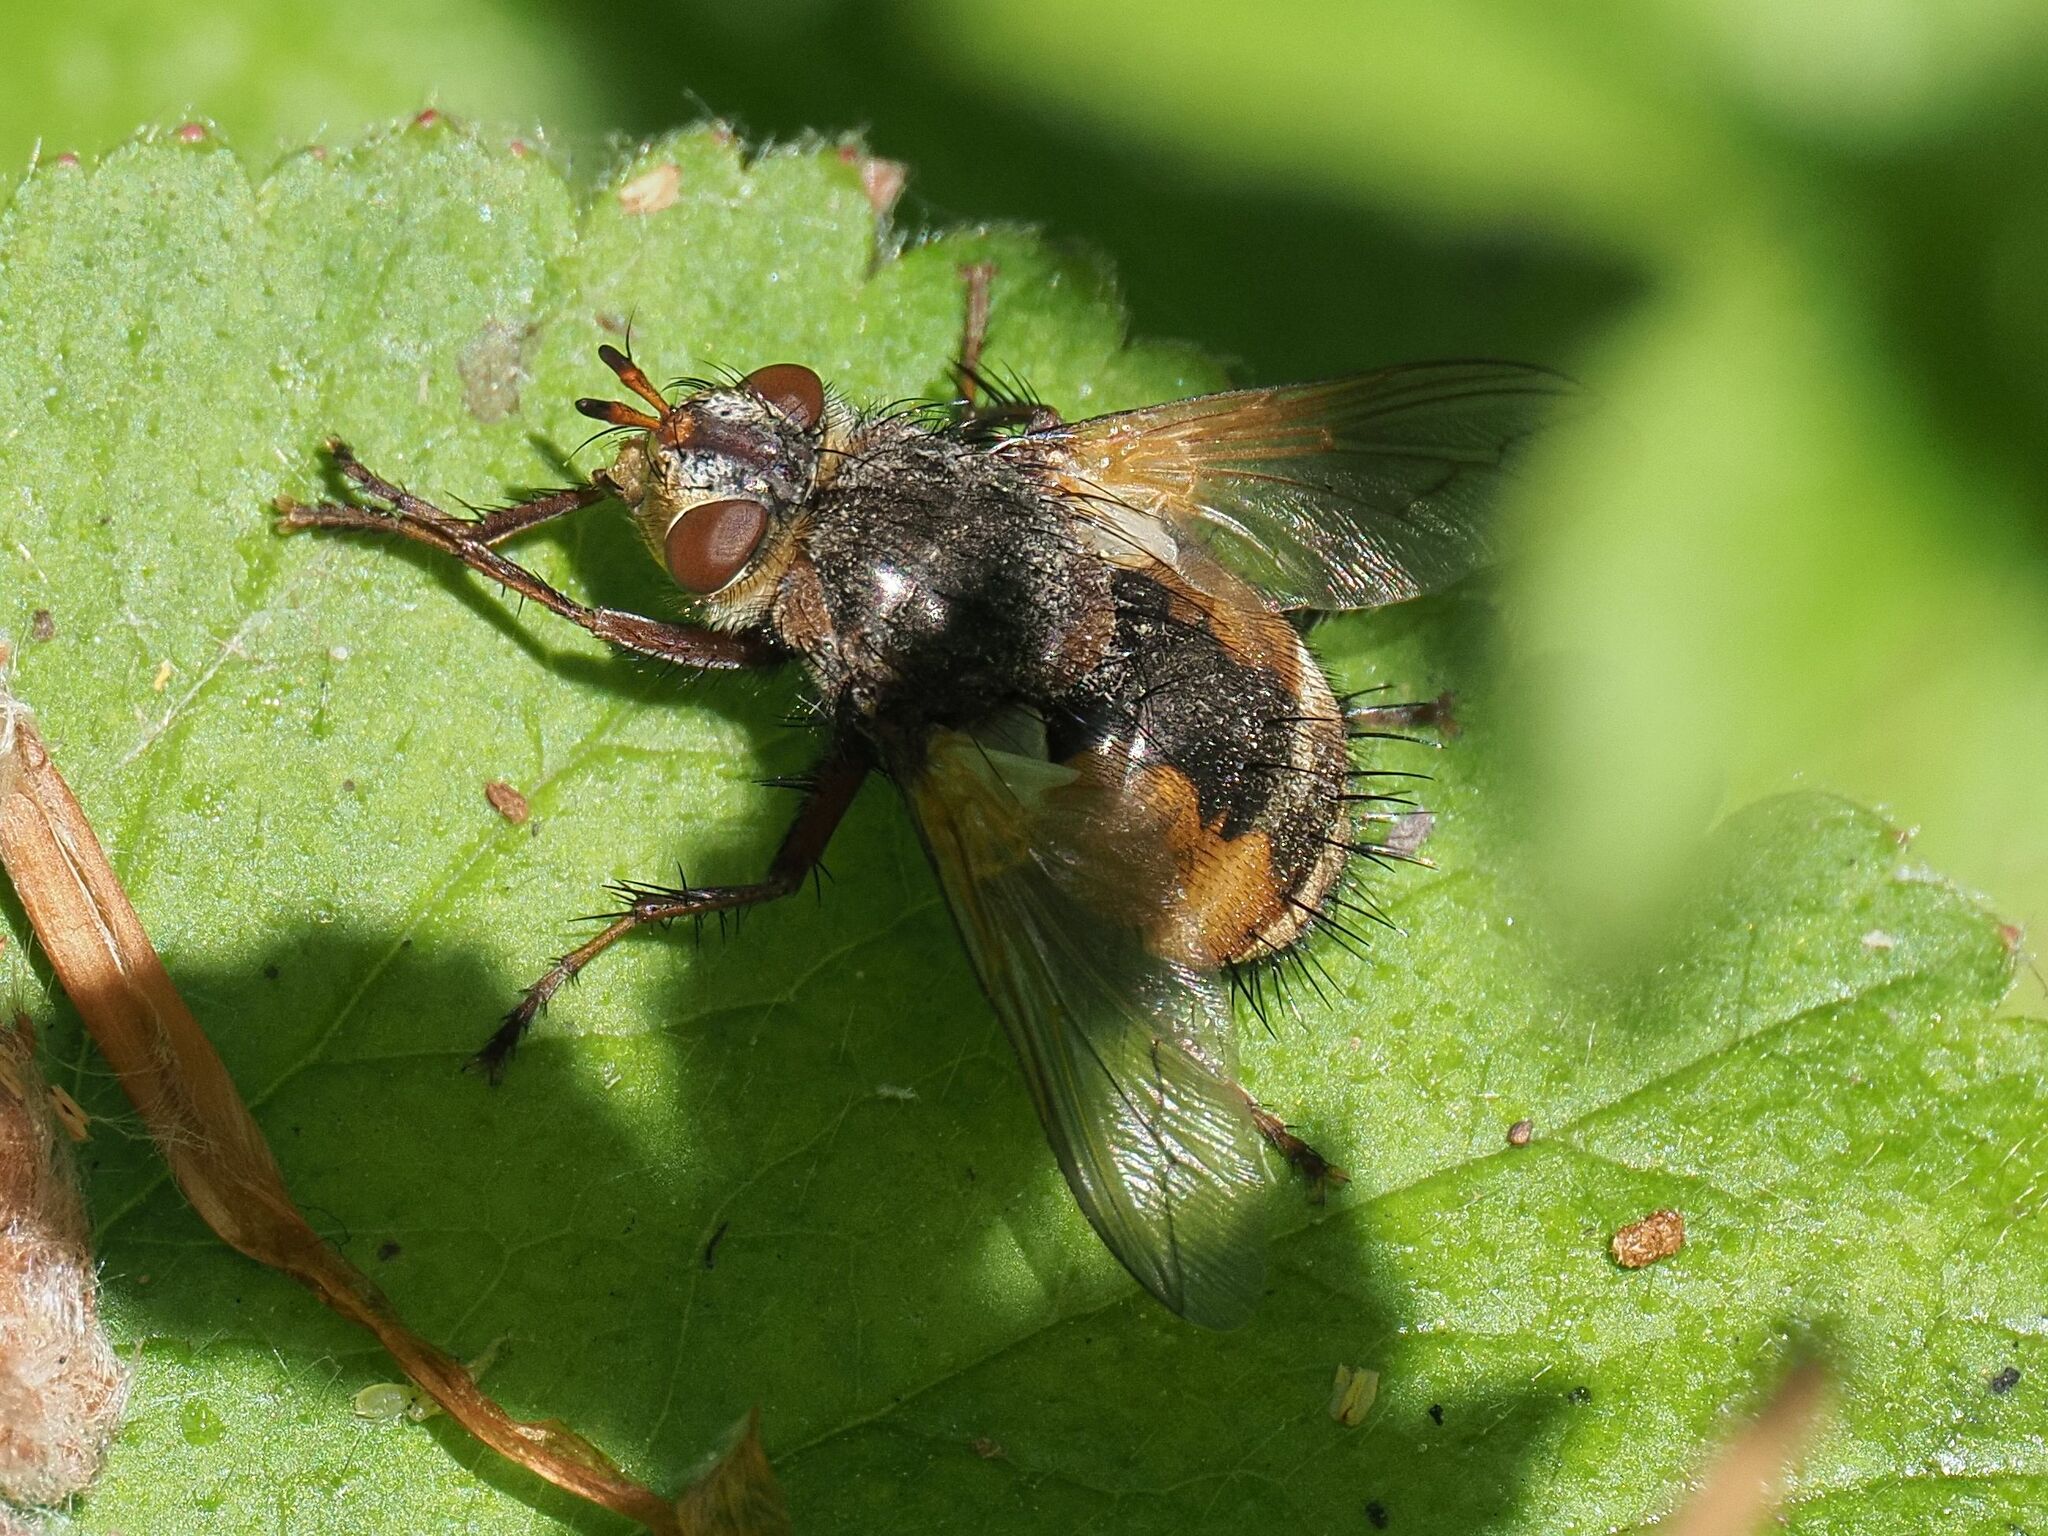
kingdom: Animalia
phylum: Arthropoda
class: Insecta
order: Diptera
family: Tachinidae
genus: Tachina
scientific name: Tachina fera
